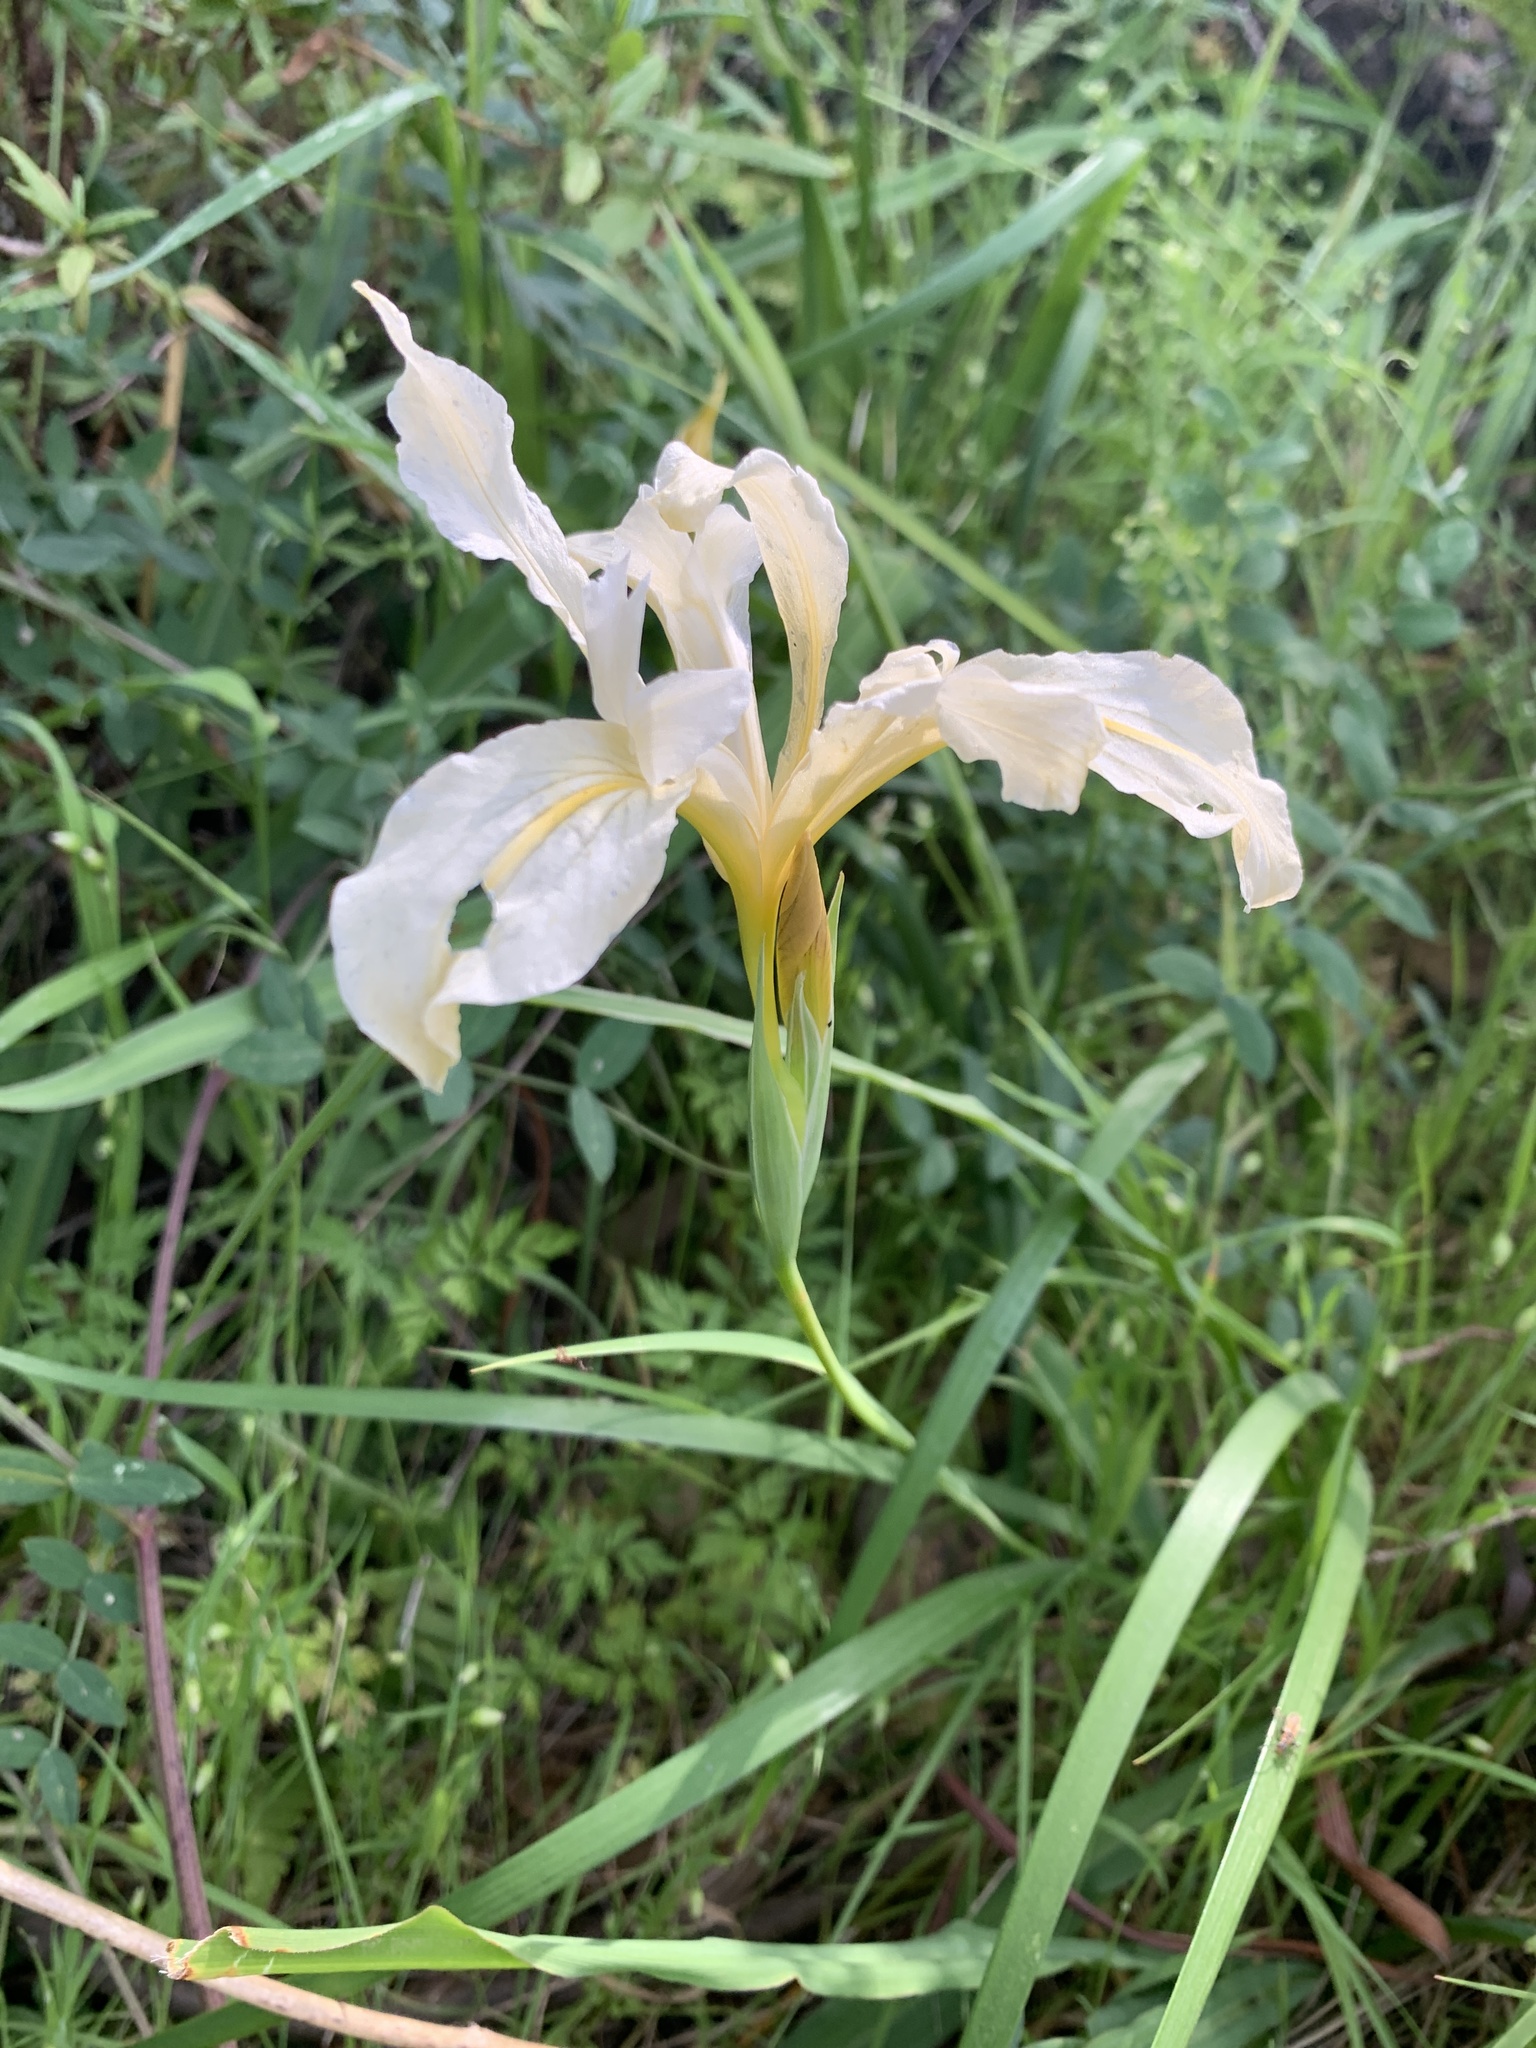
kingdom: Plantae
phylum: Tracheophyta
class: Liliopsida
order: Asparagales
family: Iridaceae
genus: Iris
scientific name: Iris douglasiana
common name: Marin iris
